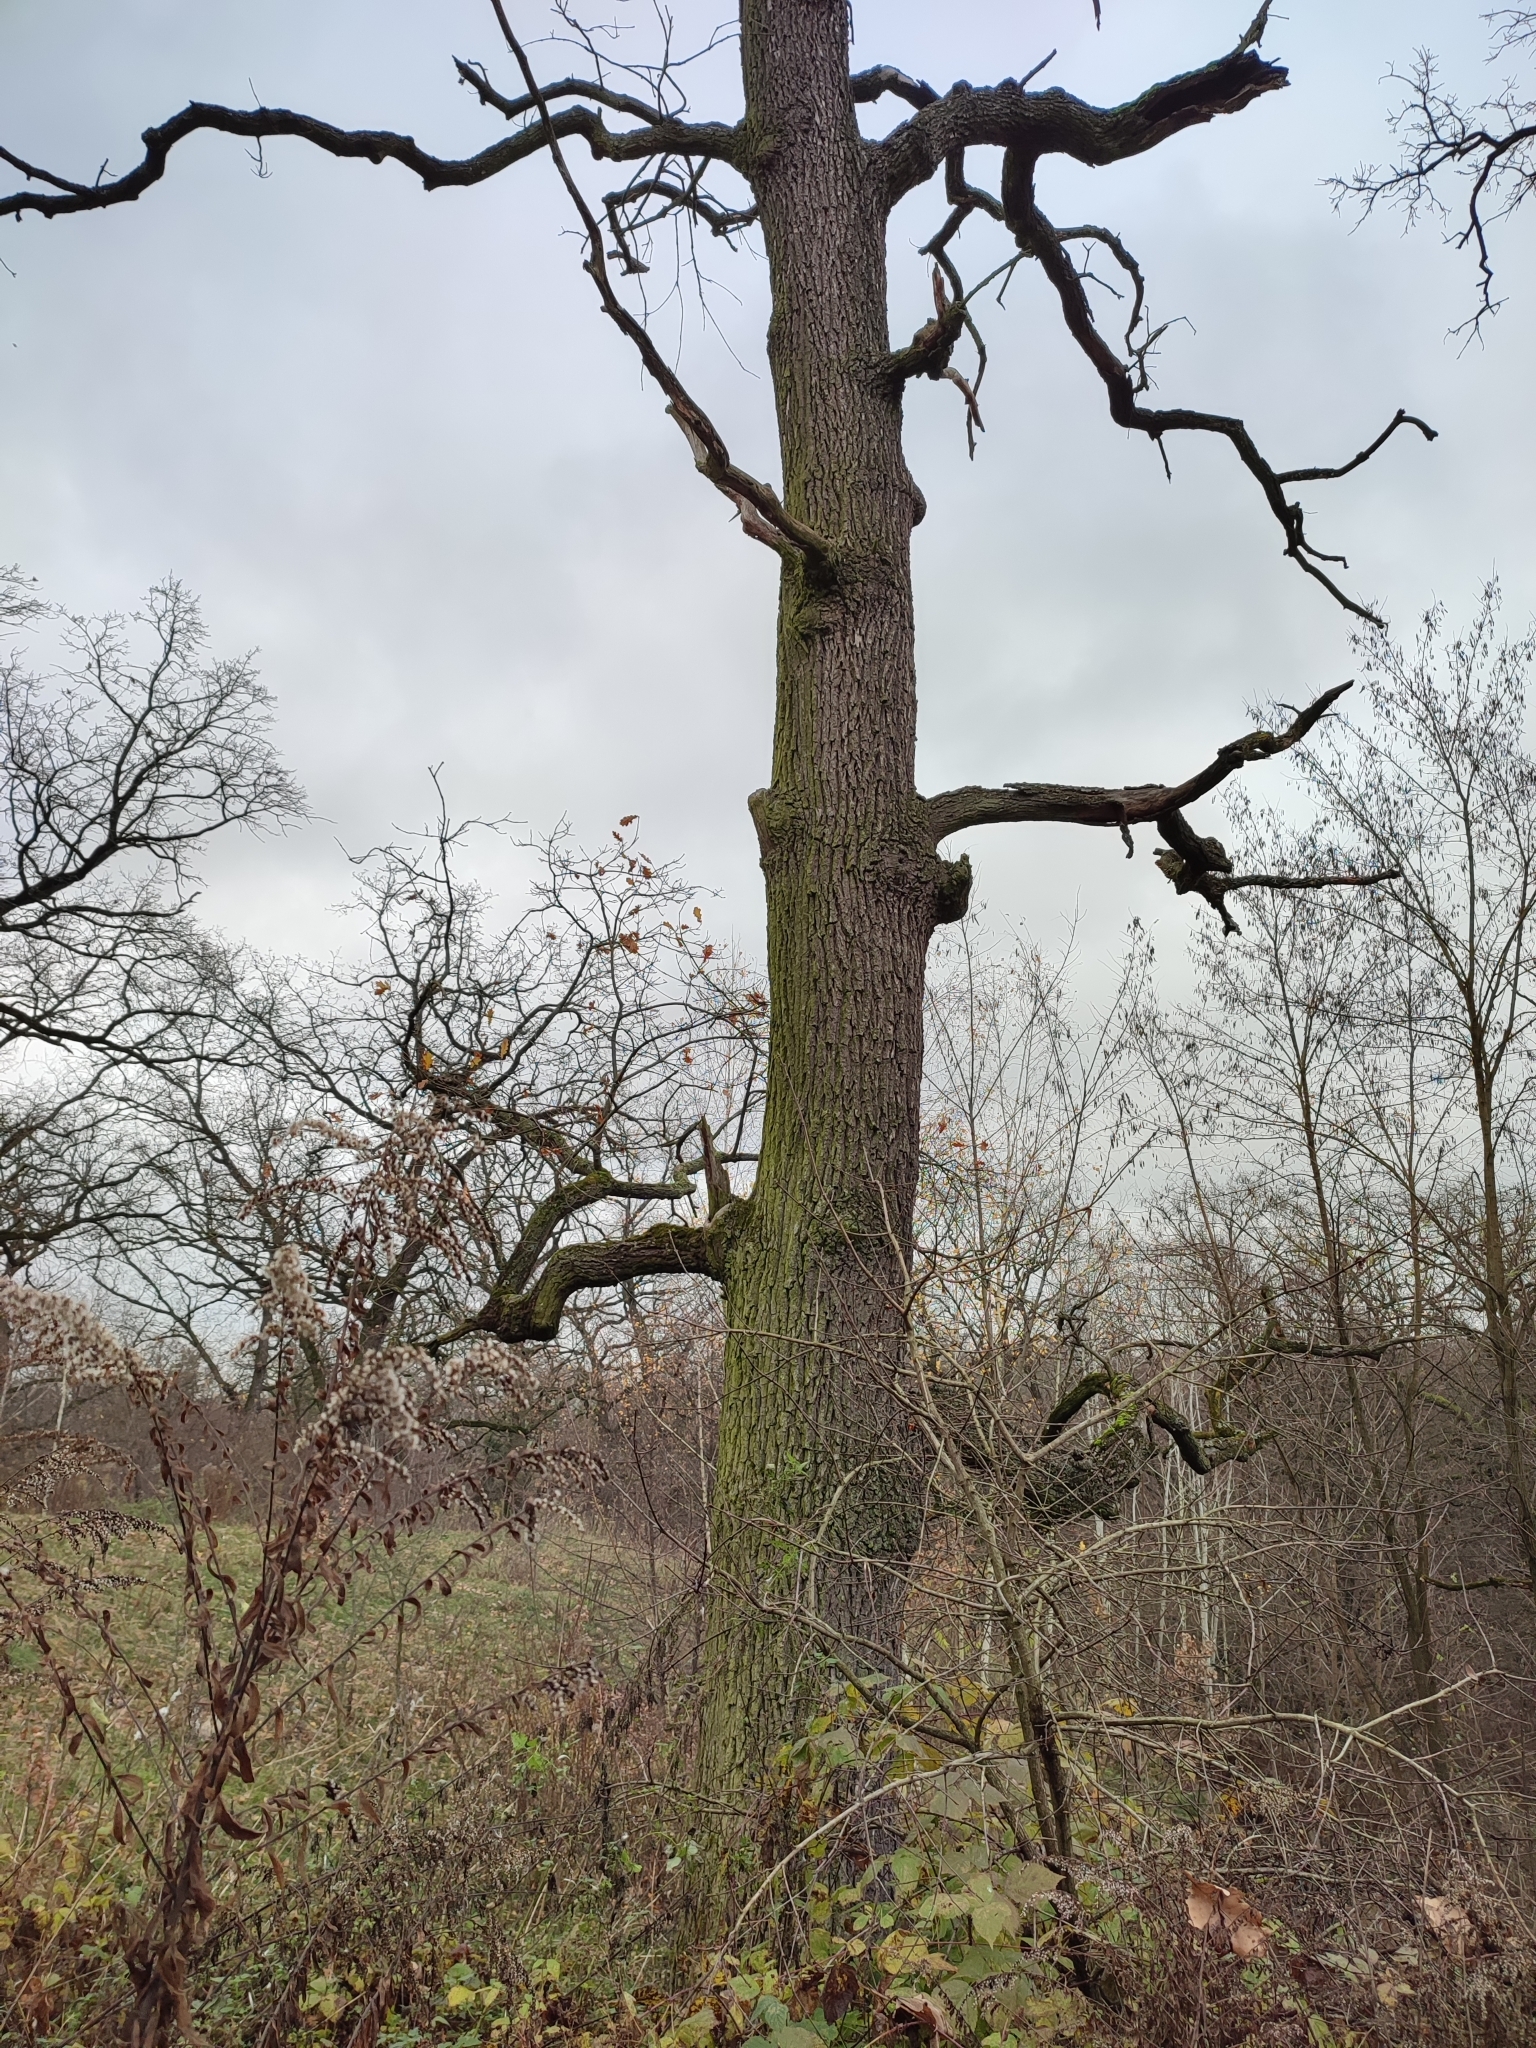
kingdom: Plantae
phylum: Tracheophyta
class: Magnoliopsida
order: Fagales
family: Fagaceae
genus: Quercus
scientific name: Quercus robur
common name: Pedunculate oak
